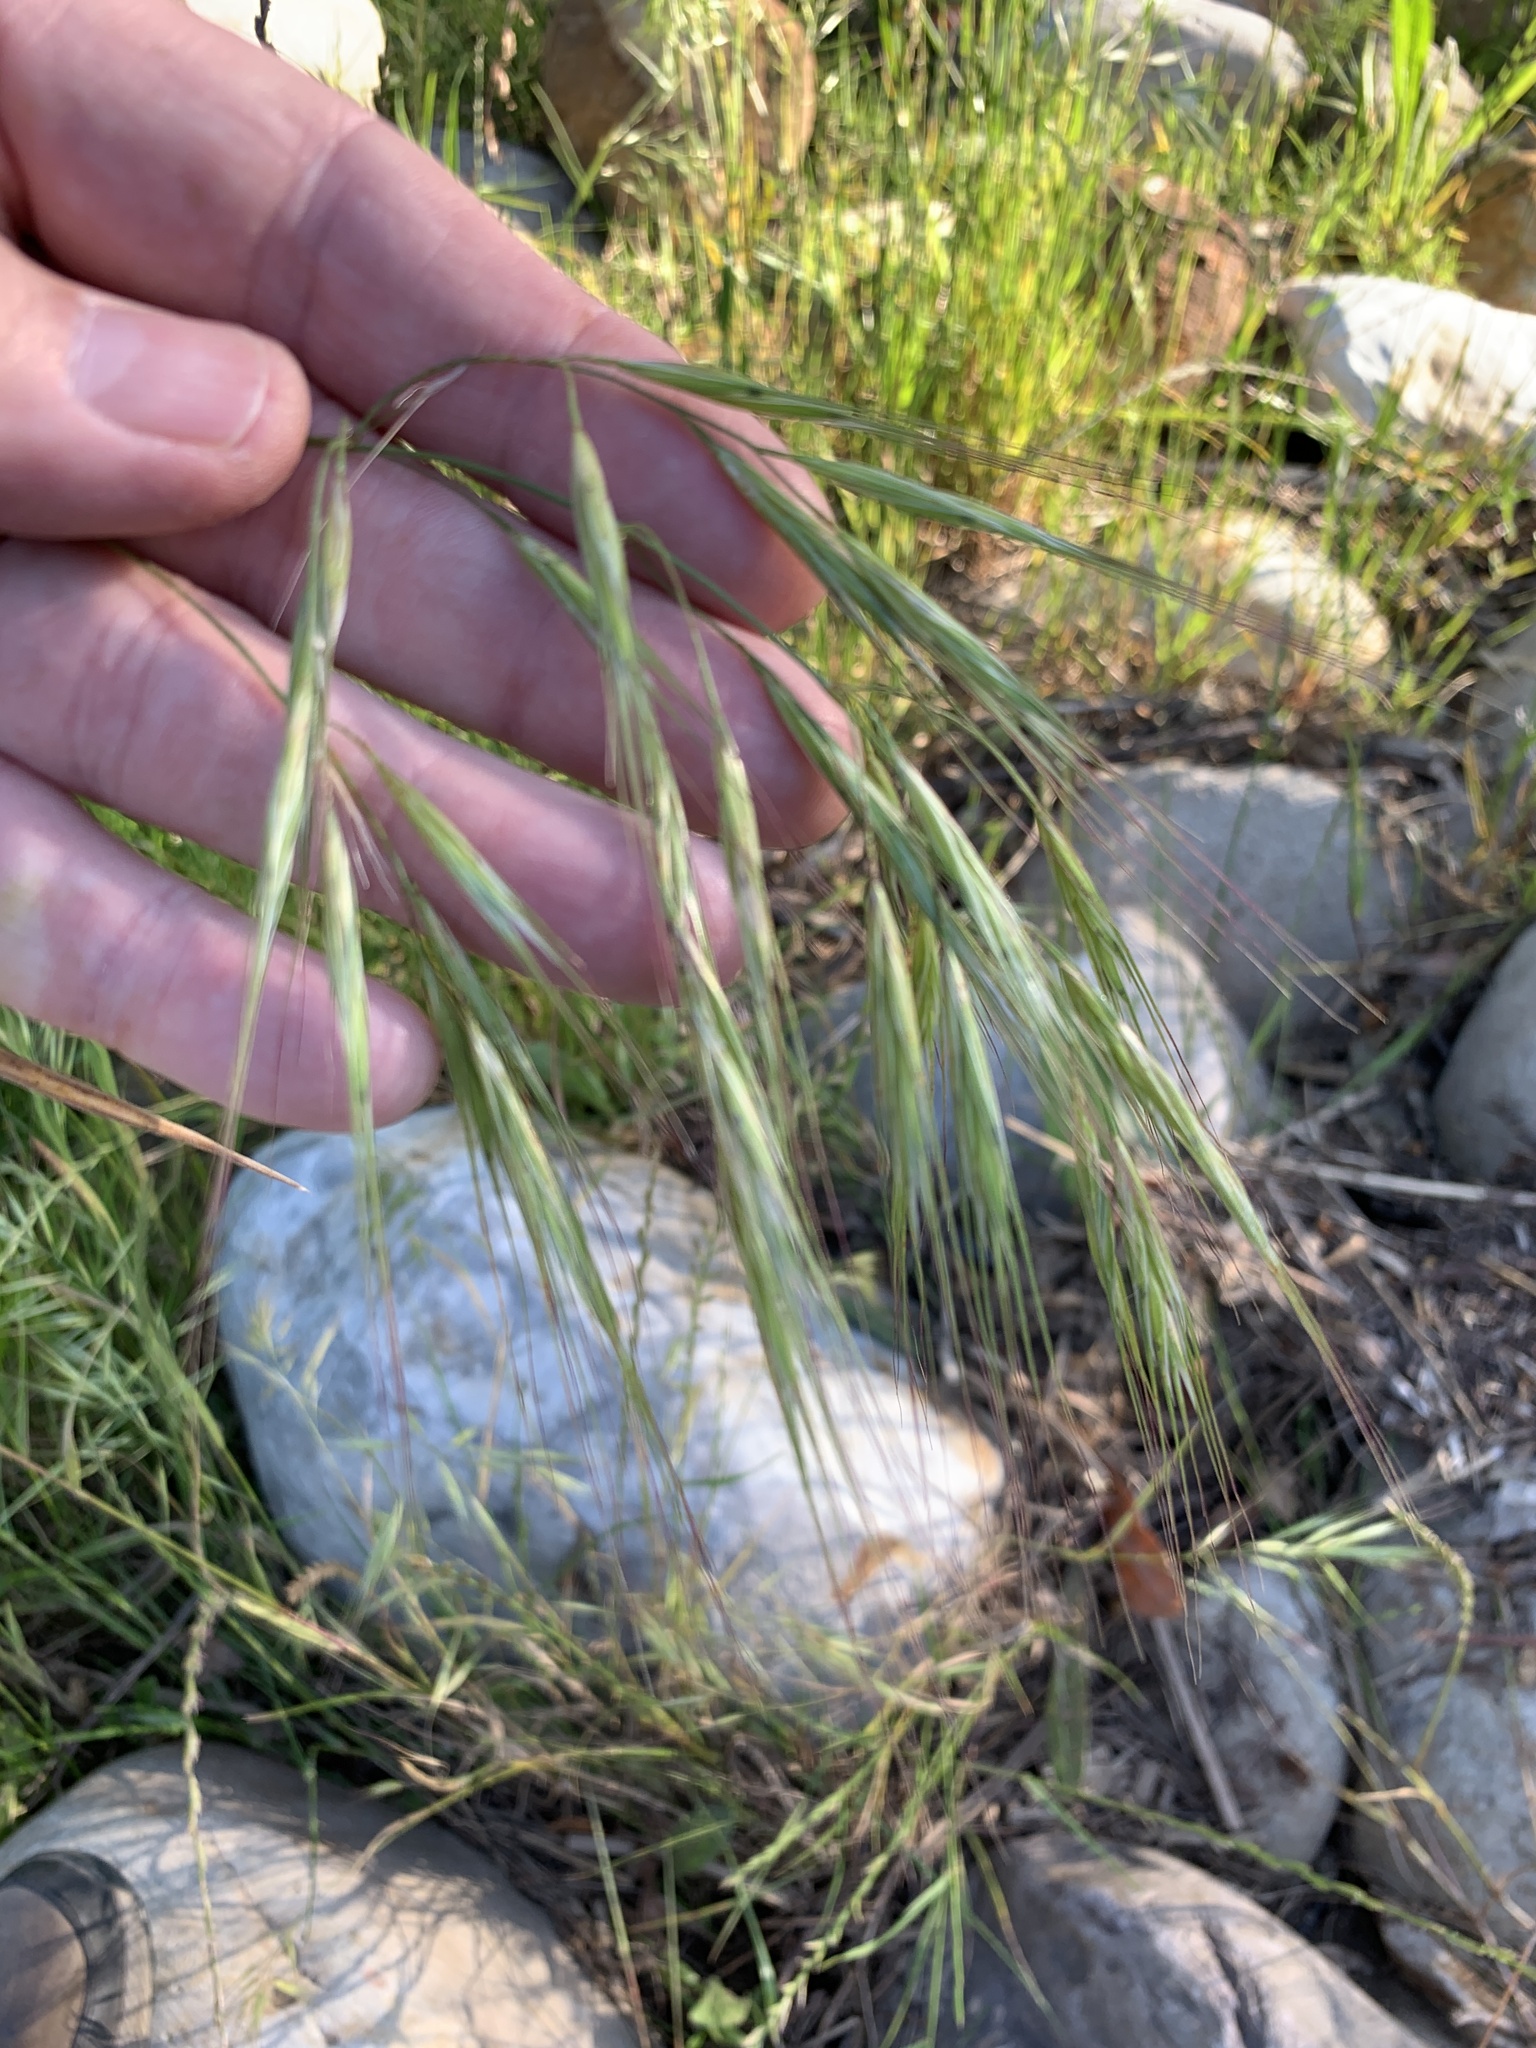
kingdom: Plantae
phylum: Tracheophyta
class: Liliopsida
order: Poales
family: Poaceae
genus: Bromus
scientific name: Bromus diandrus
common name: Ripgut brome
